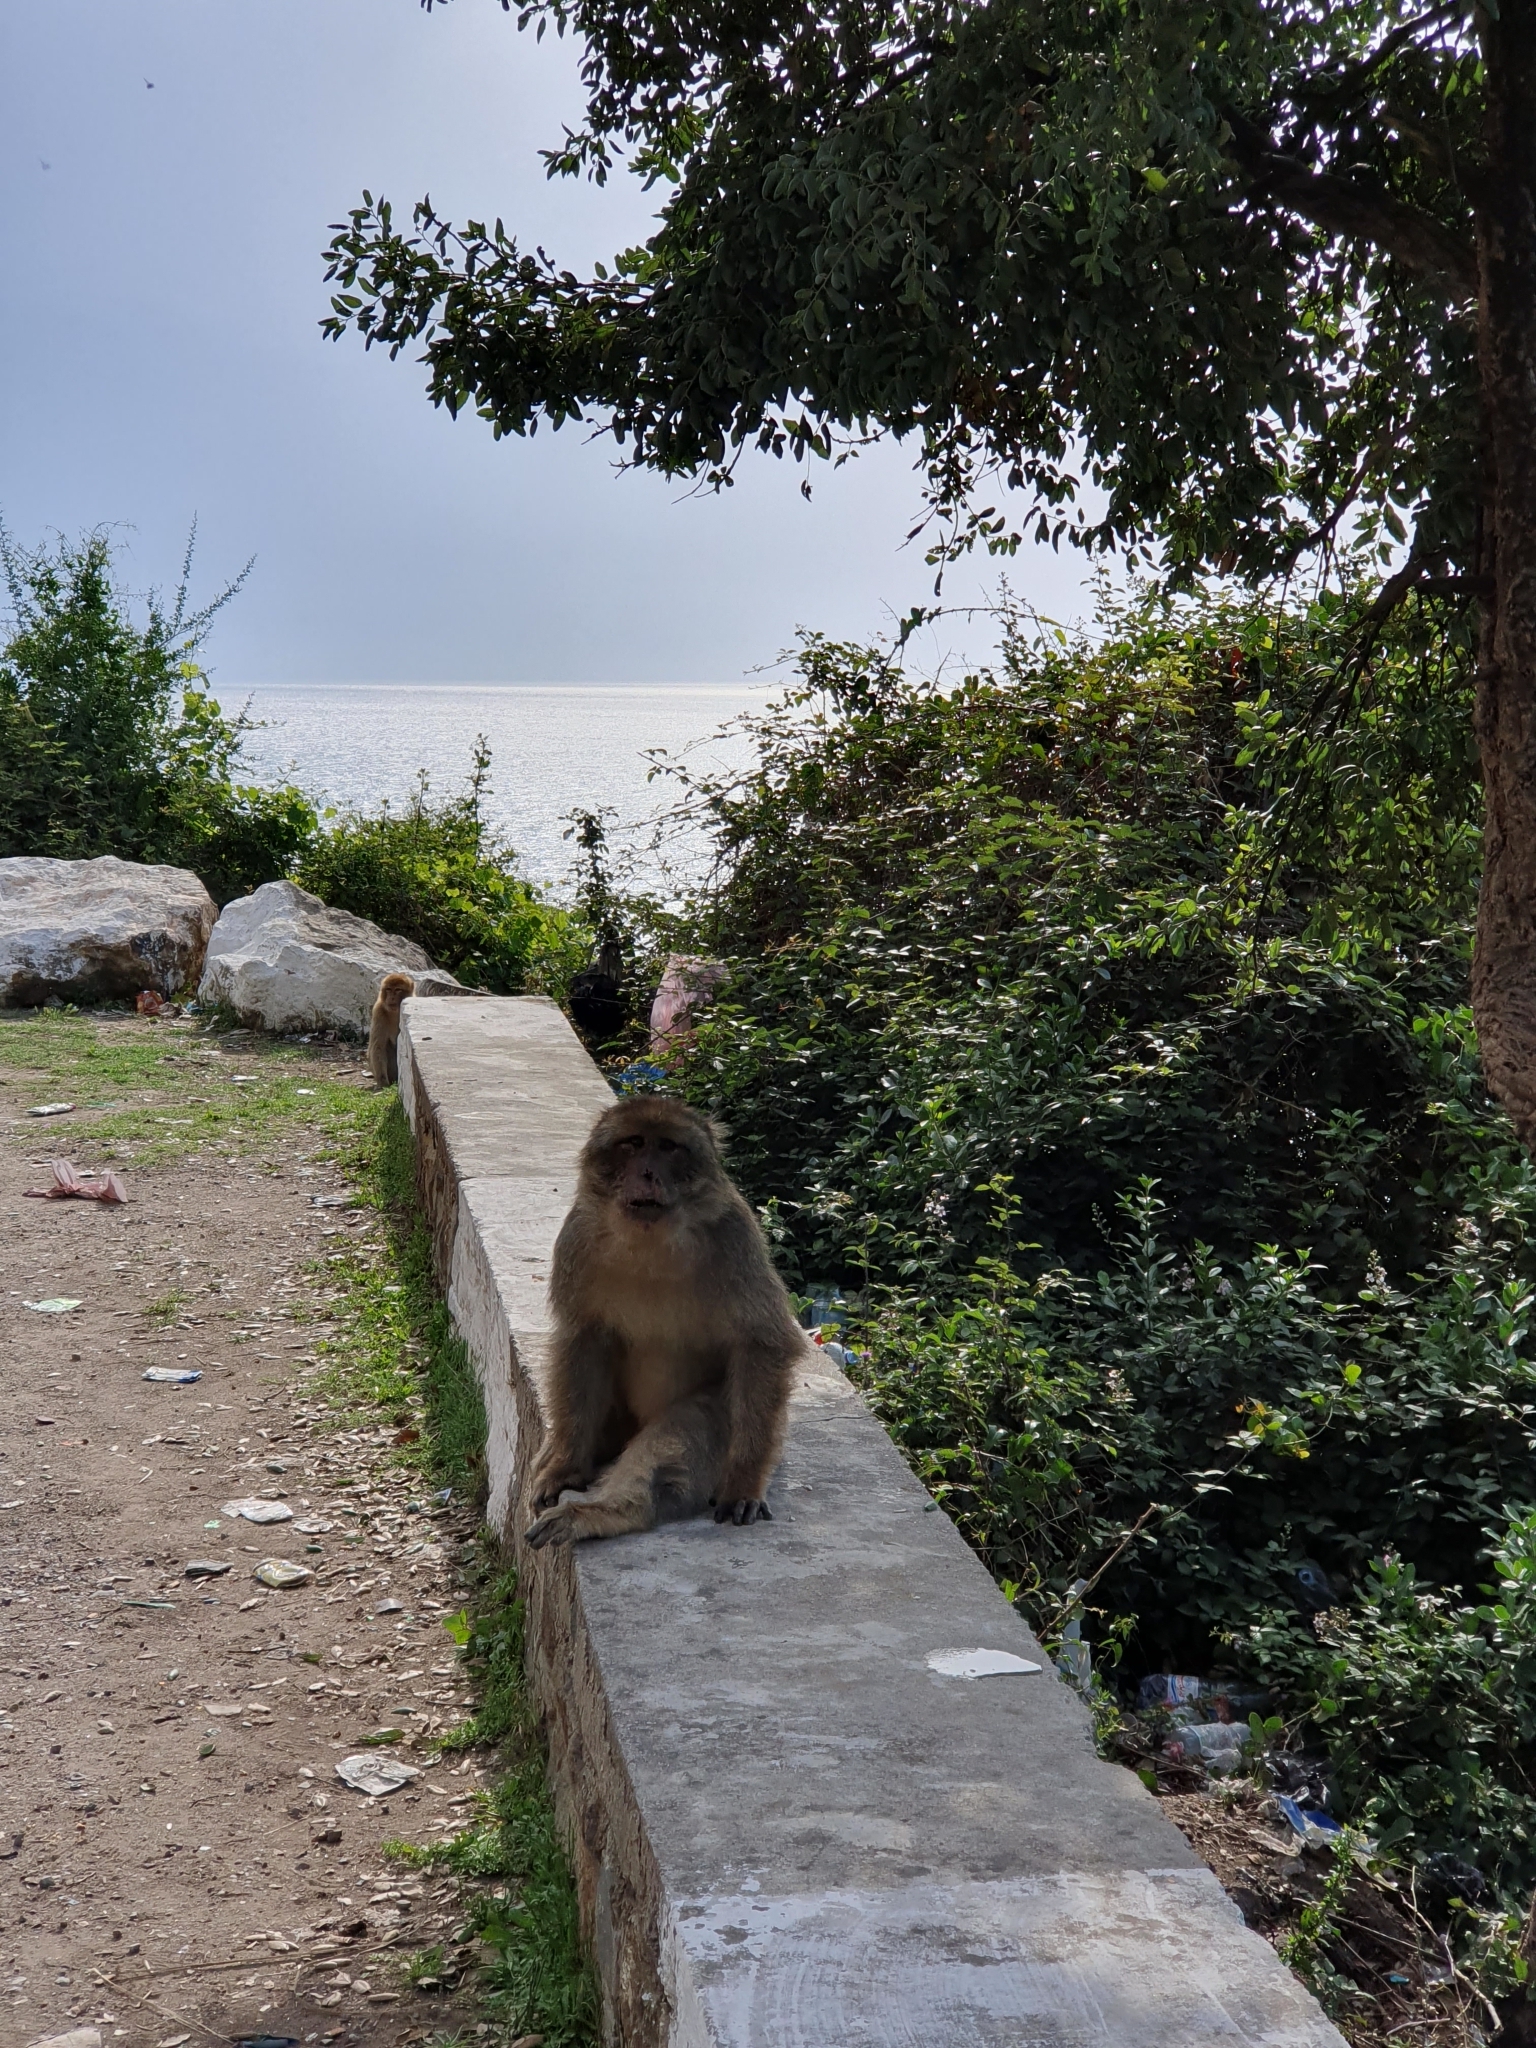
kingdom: Animalia
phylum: Chordata
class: Mammalia
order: Primates
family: Cercopithecidae
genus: Macaca
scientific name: Macaca sylvanus
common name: Barbary macaque
